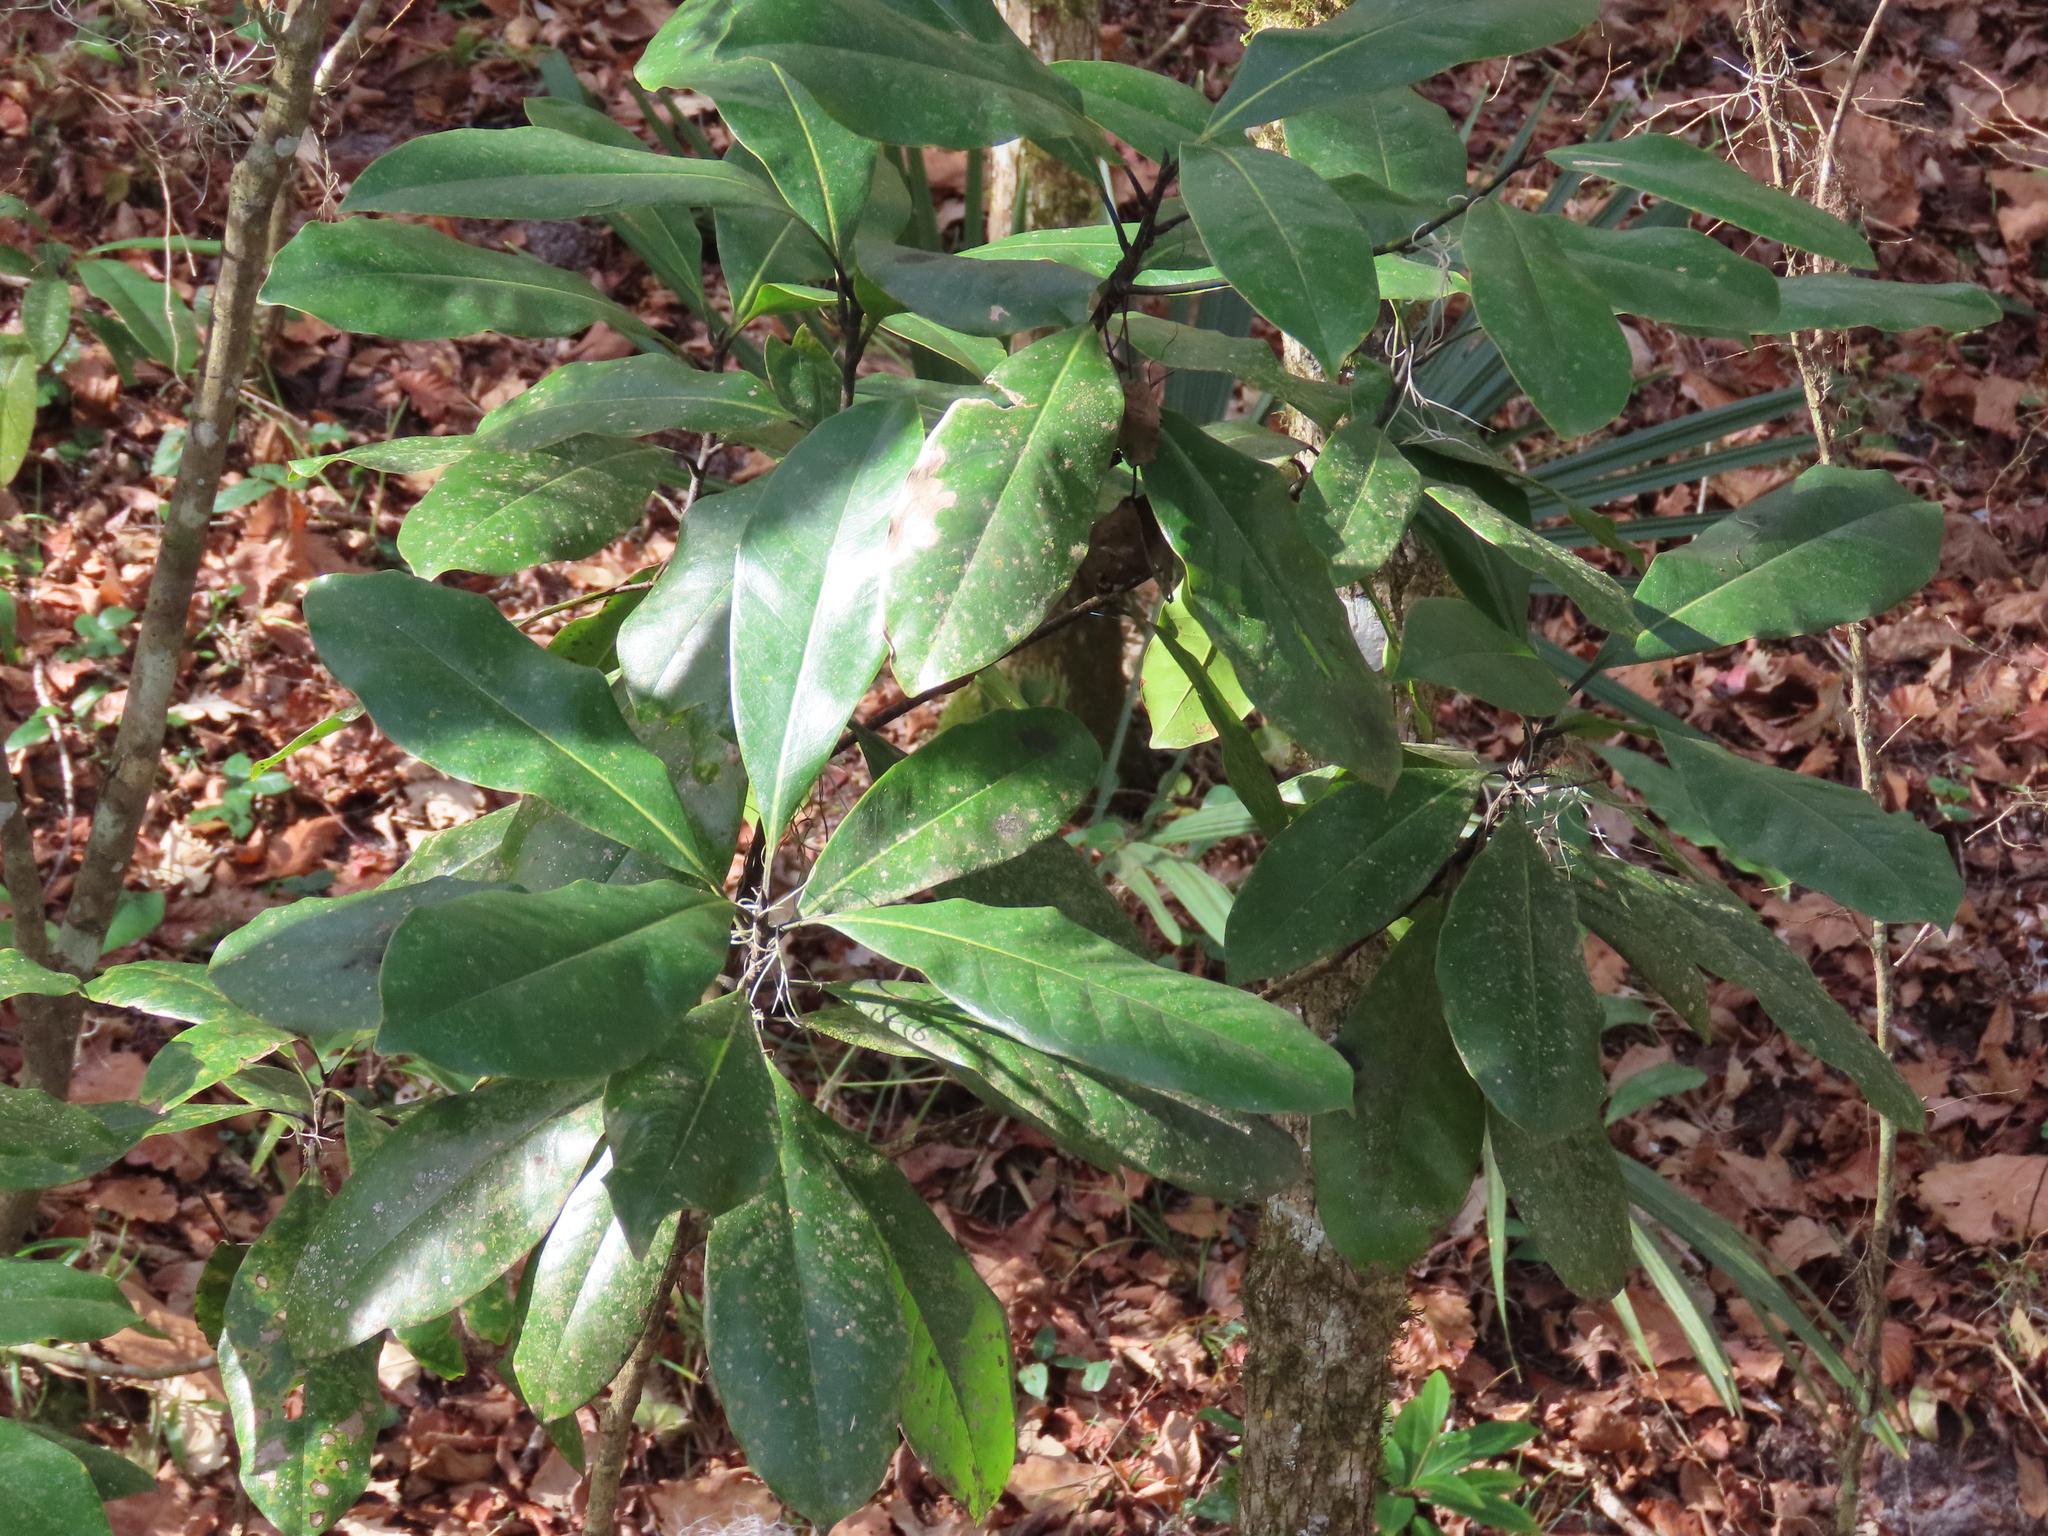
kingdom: Plantae
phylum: Tracheophyta
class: Magnoliopsida
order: Magnoliales
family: Magnoliaceae
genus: Magnolia
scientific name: Magnolia grandiflora
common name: Southern magnolia
